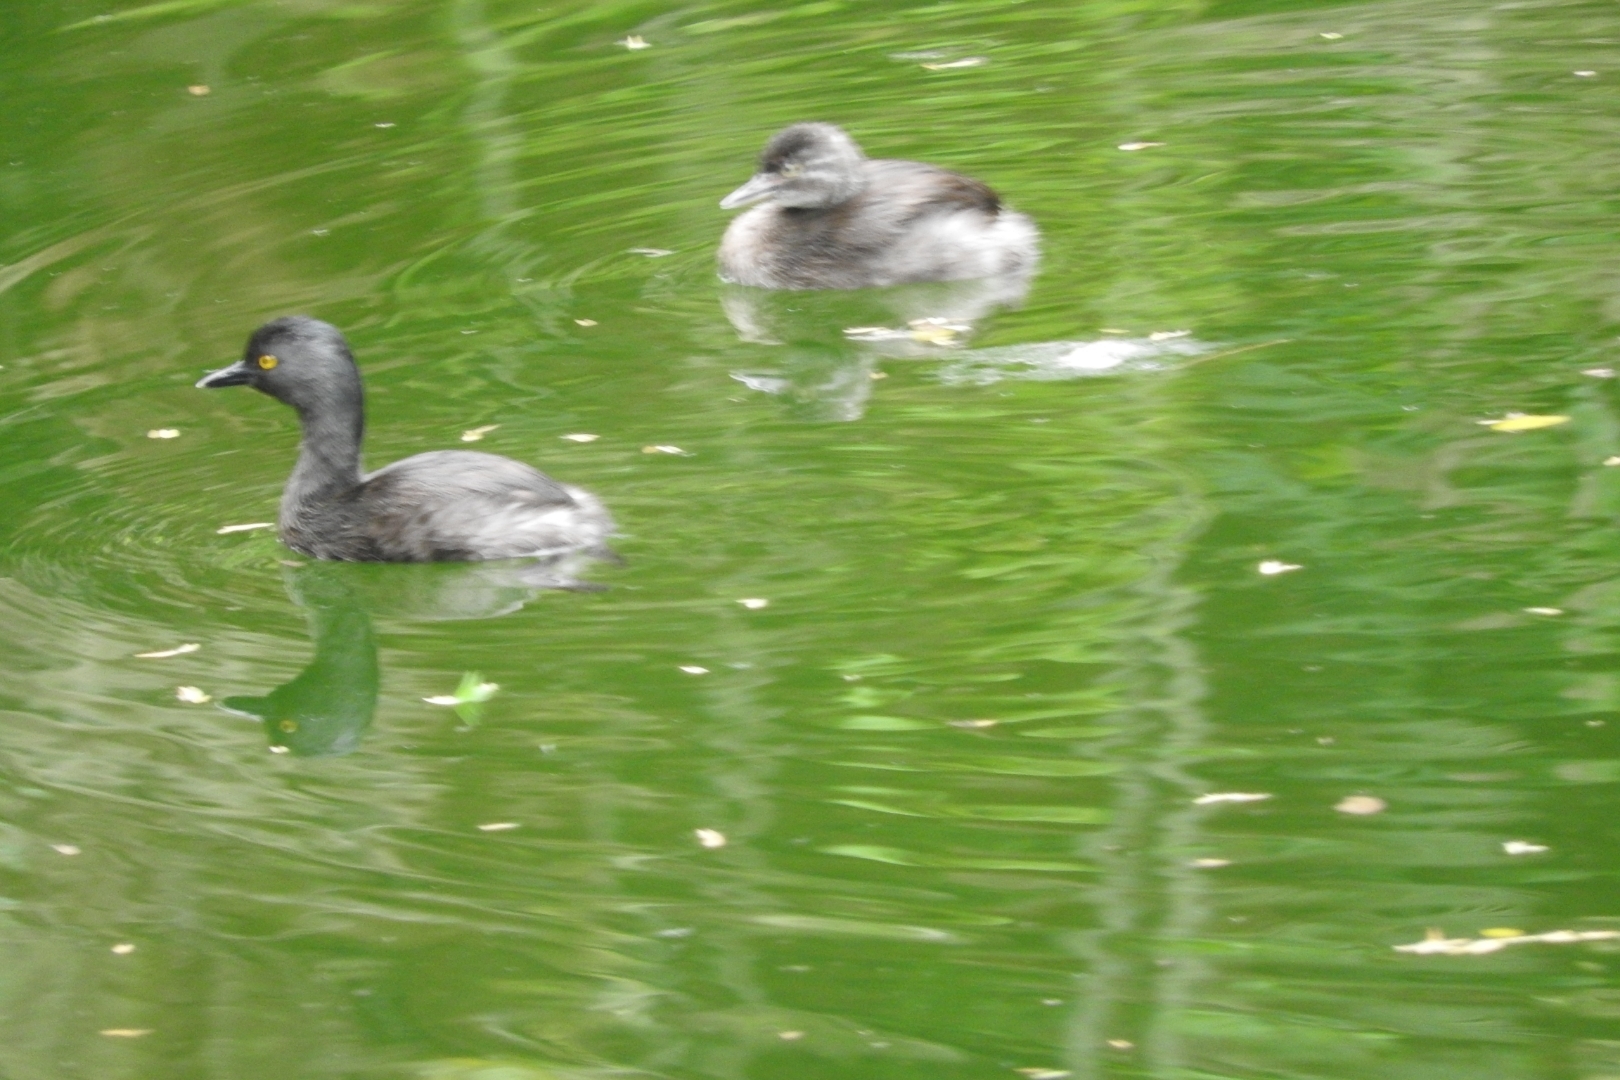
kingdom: Animalia
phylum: Chordata
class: Aves
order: Podicipediformes
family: Podicipedidae
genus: Tachybaptus
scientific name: Tachybaptus dominicus
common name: Least grebe
